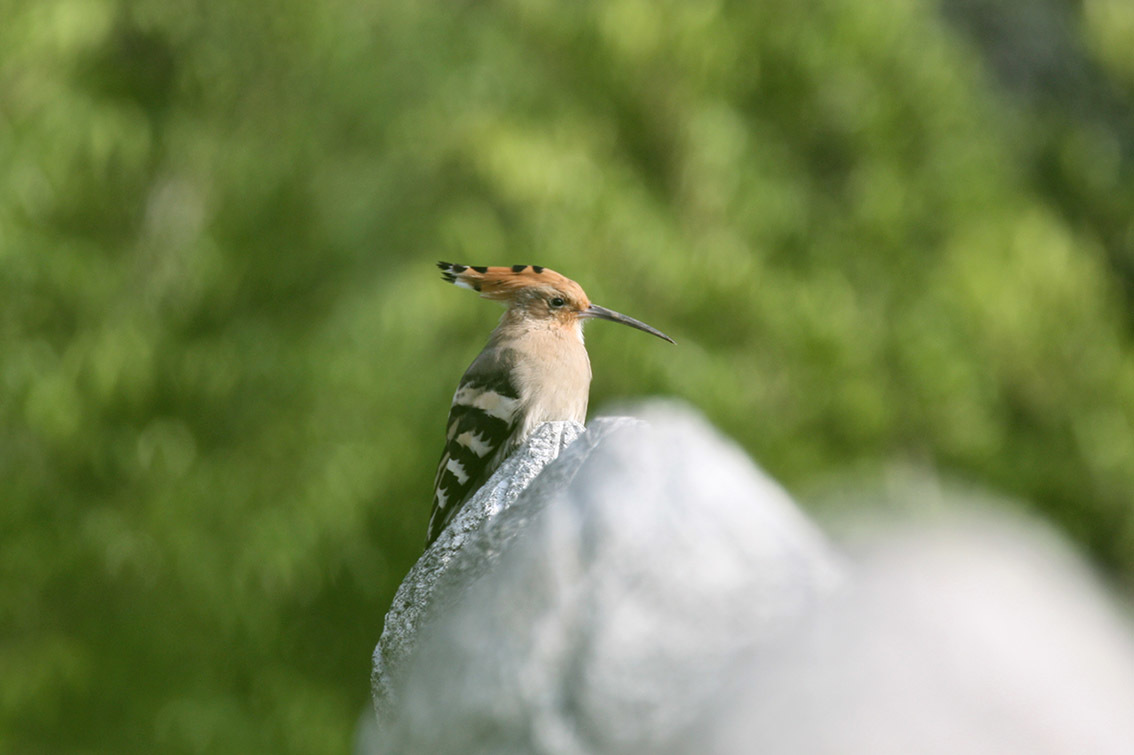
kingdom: Animalia
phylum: Chordata
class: Aves
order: Bucerotiformes
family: Upupidae
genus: Upupa
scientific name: Upupa epops
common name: Eurasian hoopoe
